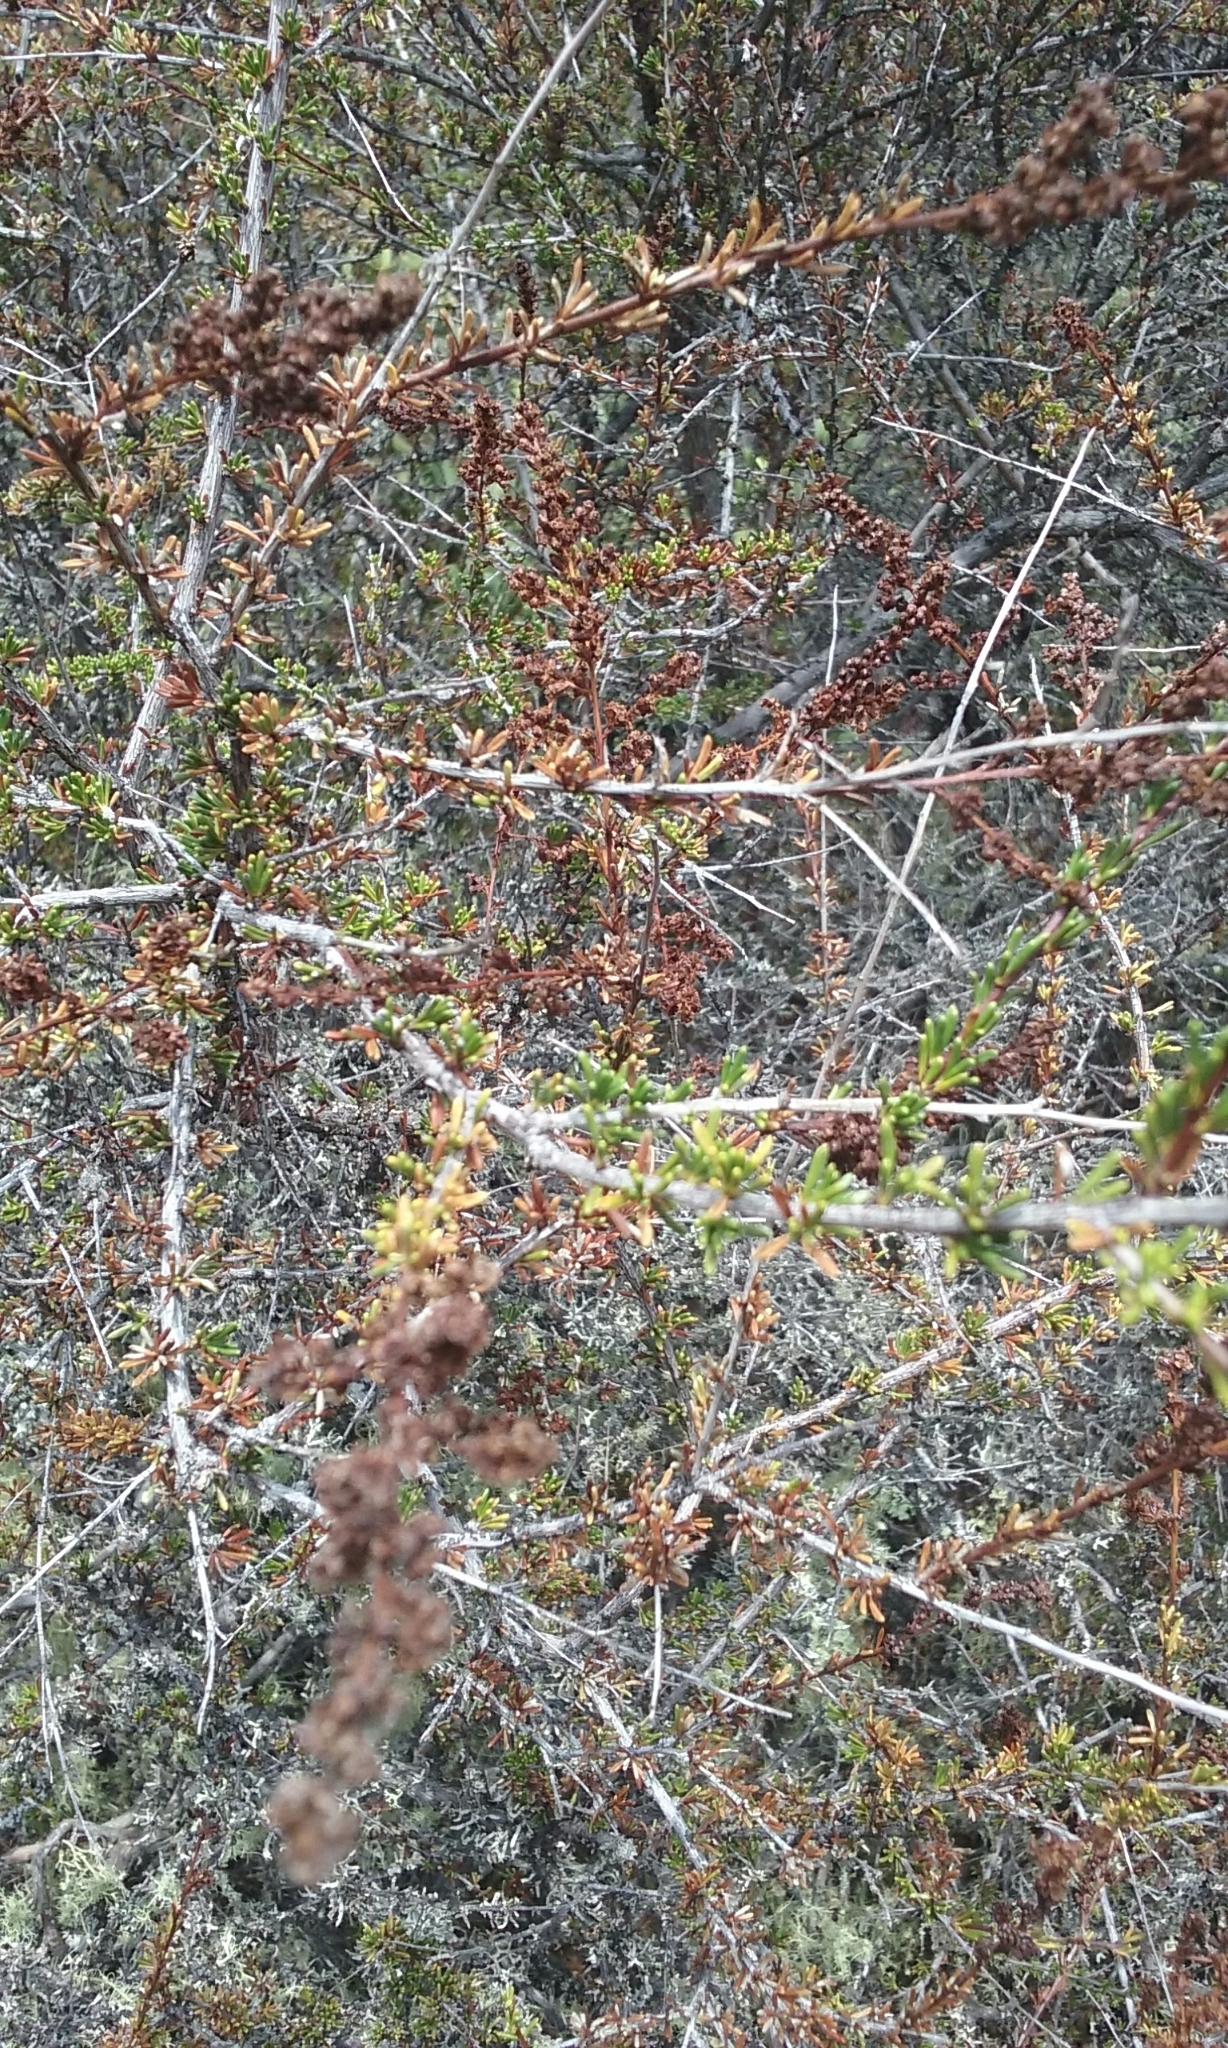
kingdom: Plantae
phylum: Tracheophyta
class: Magnoliopsida
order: Rosales
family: Rosaceae
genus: Adenostoma
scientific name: Adenostoma fasciculatum
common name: Chamise
